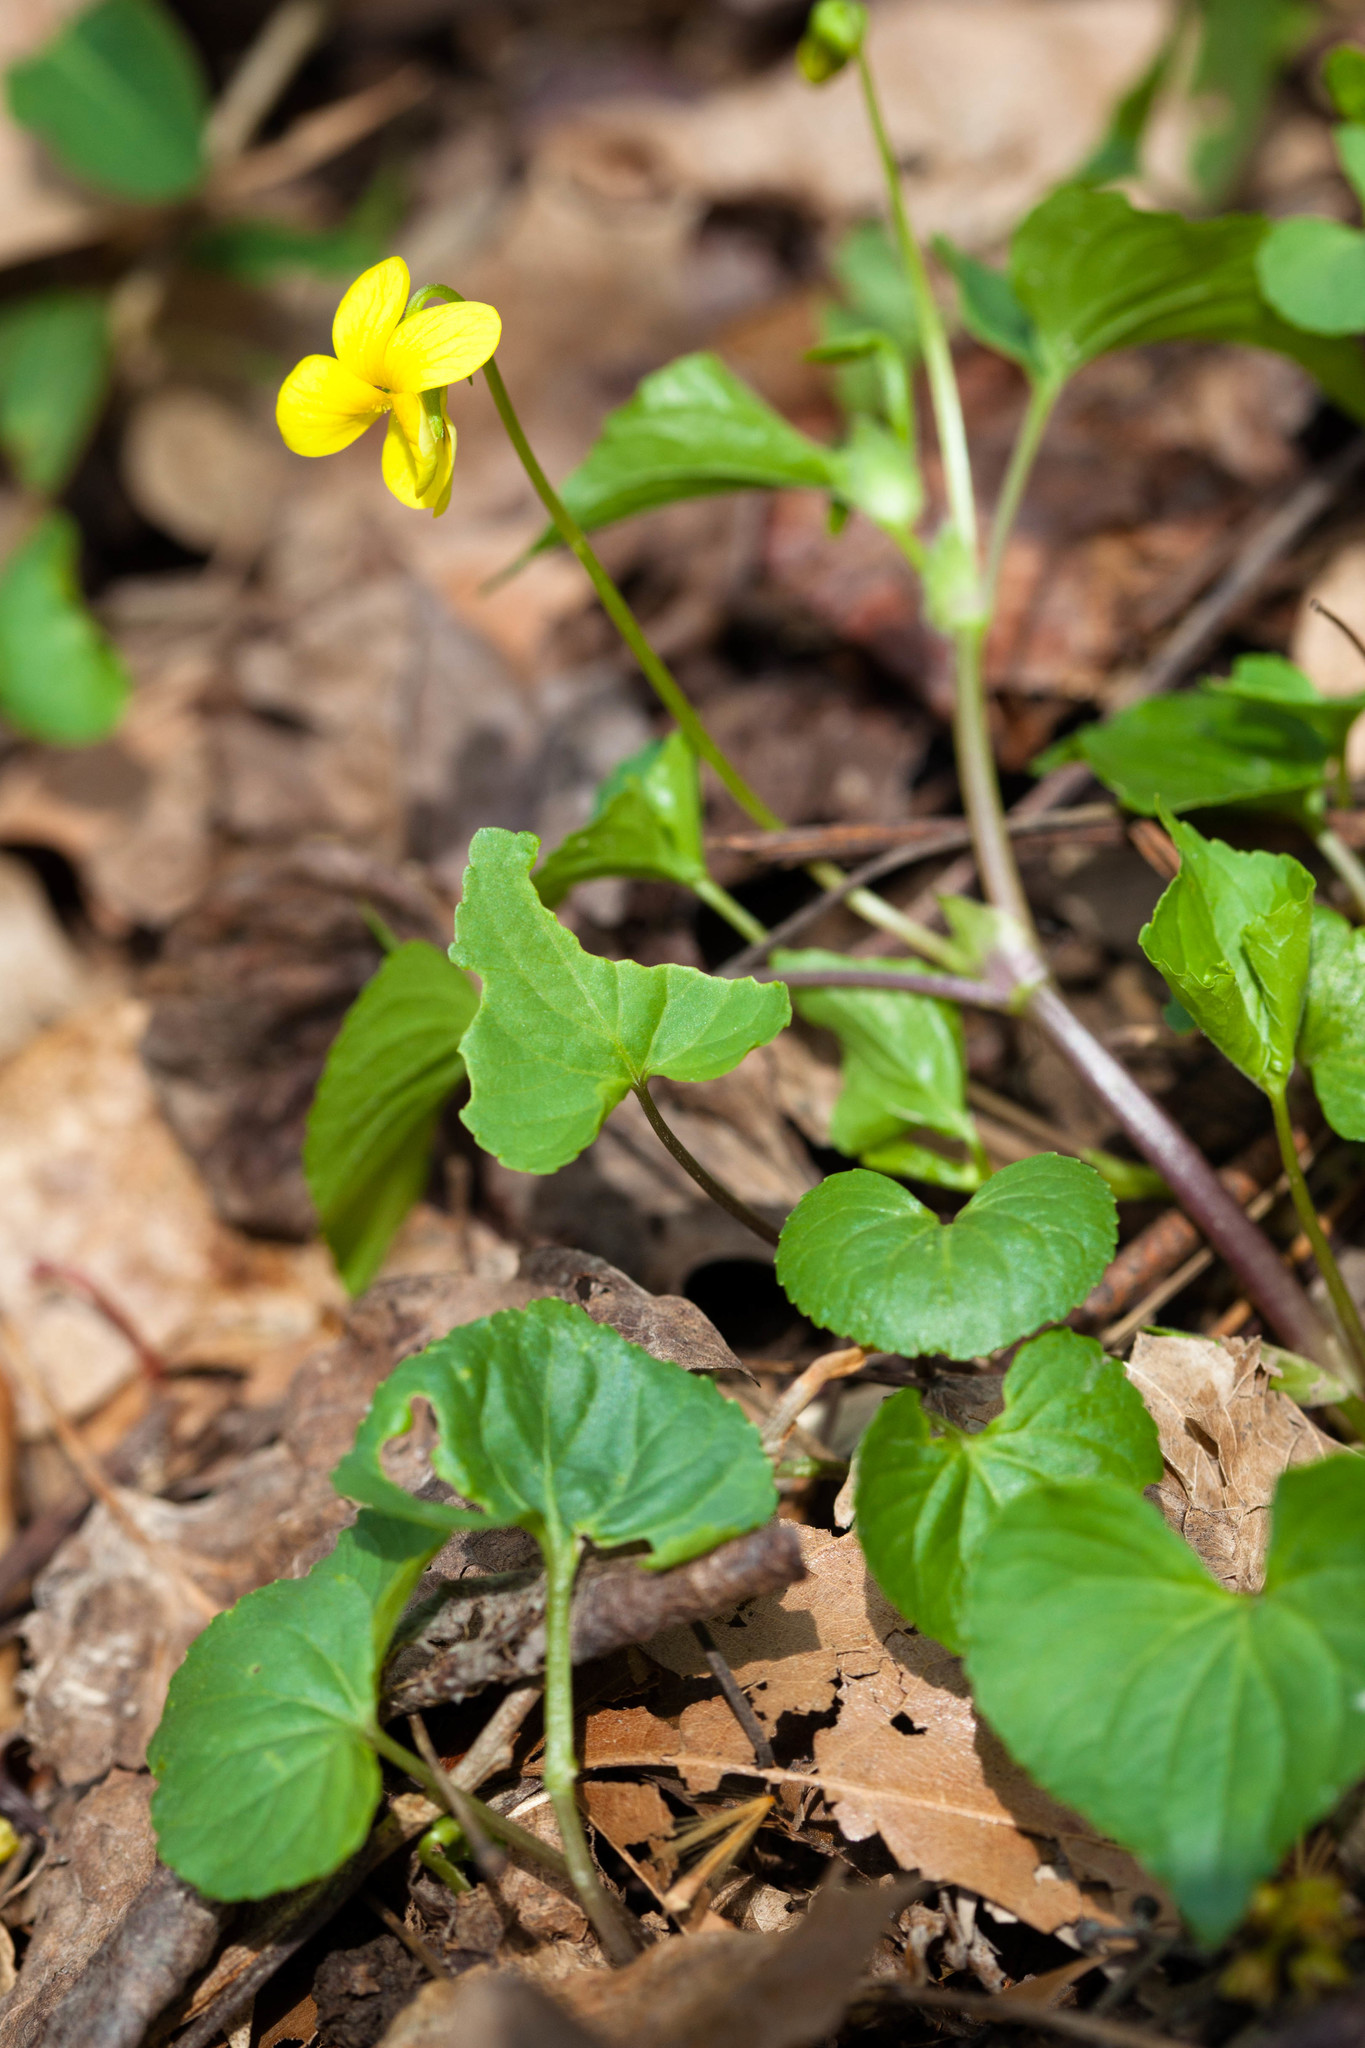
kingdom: Plantae
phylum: Tracheophyta
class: Magnoliopsida
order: Malpighiales
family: Violaceae
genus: Viola
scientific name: Viola eriocarpa
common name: Smooth yellow violet
